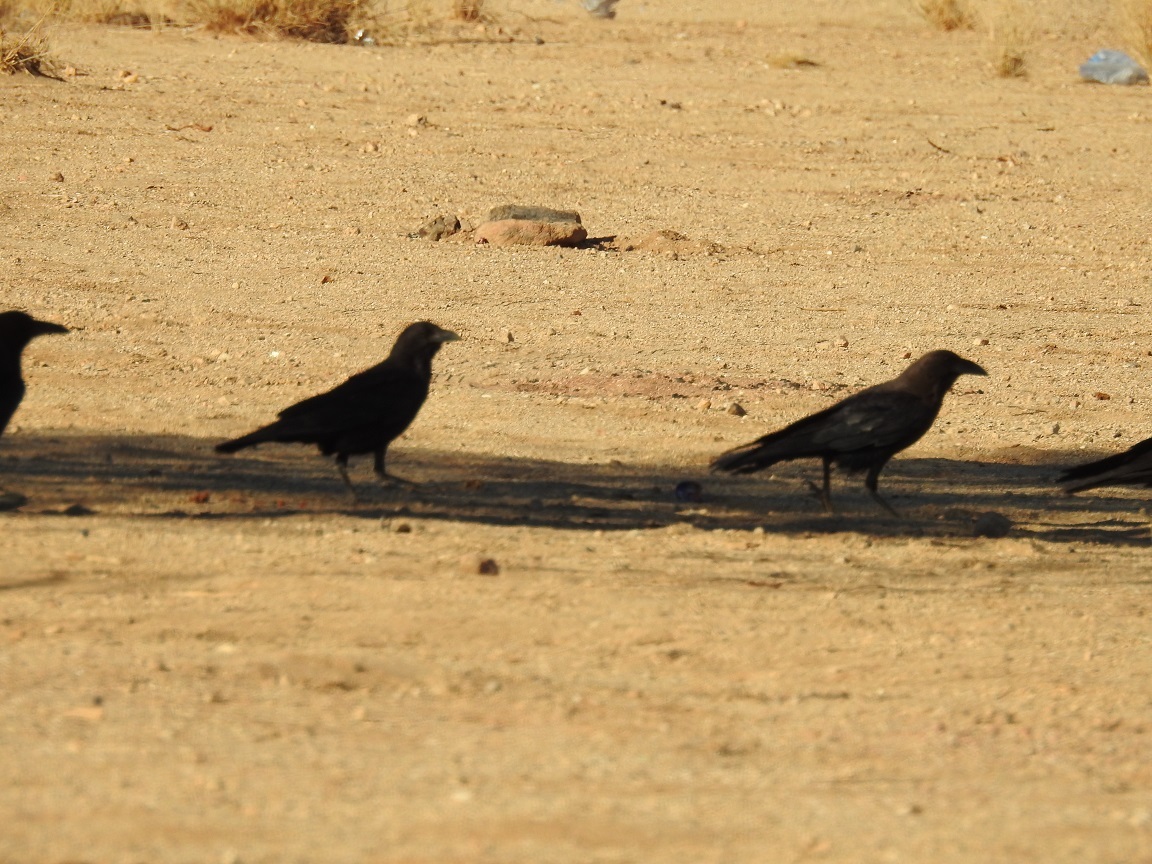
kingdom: Animalia
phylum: Chordata
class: Aves
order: Passeriformes
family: Corvidae
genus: Corvus
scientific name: Corvus ruficollis
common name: Brown-necked raven
